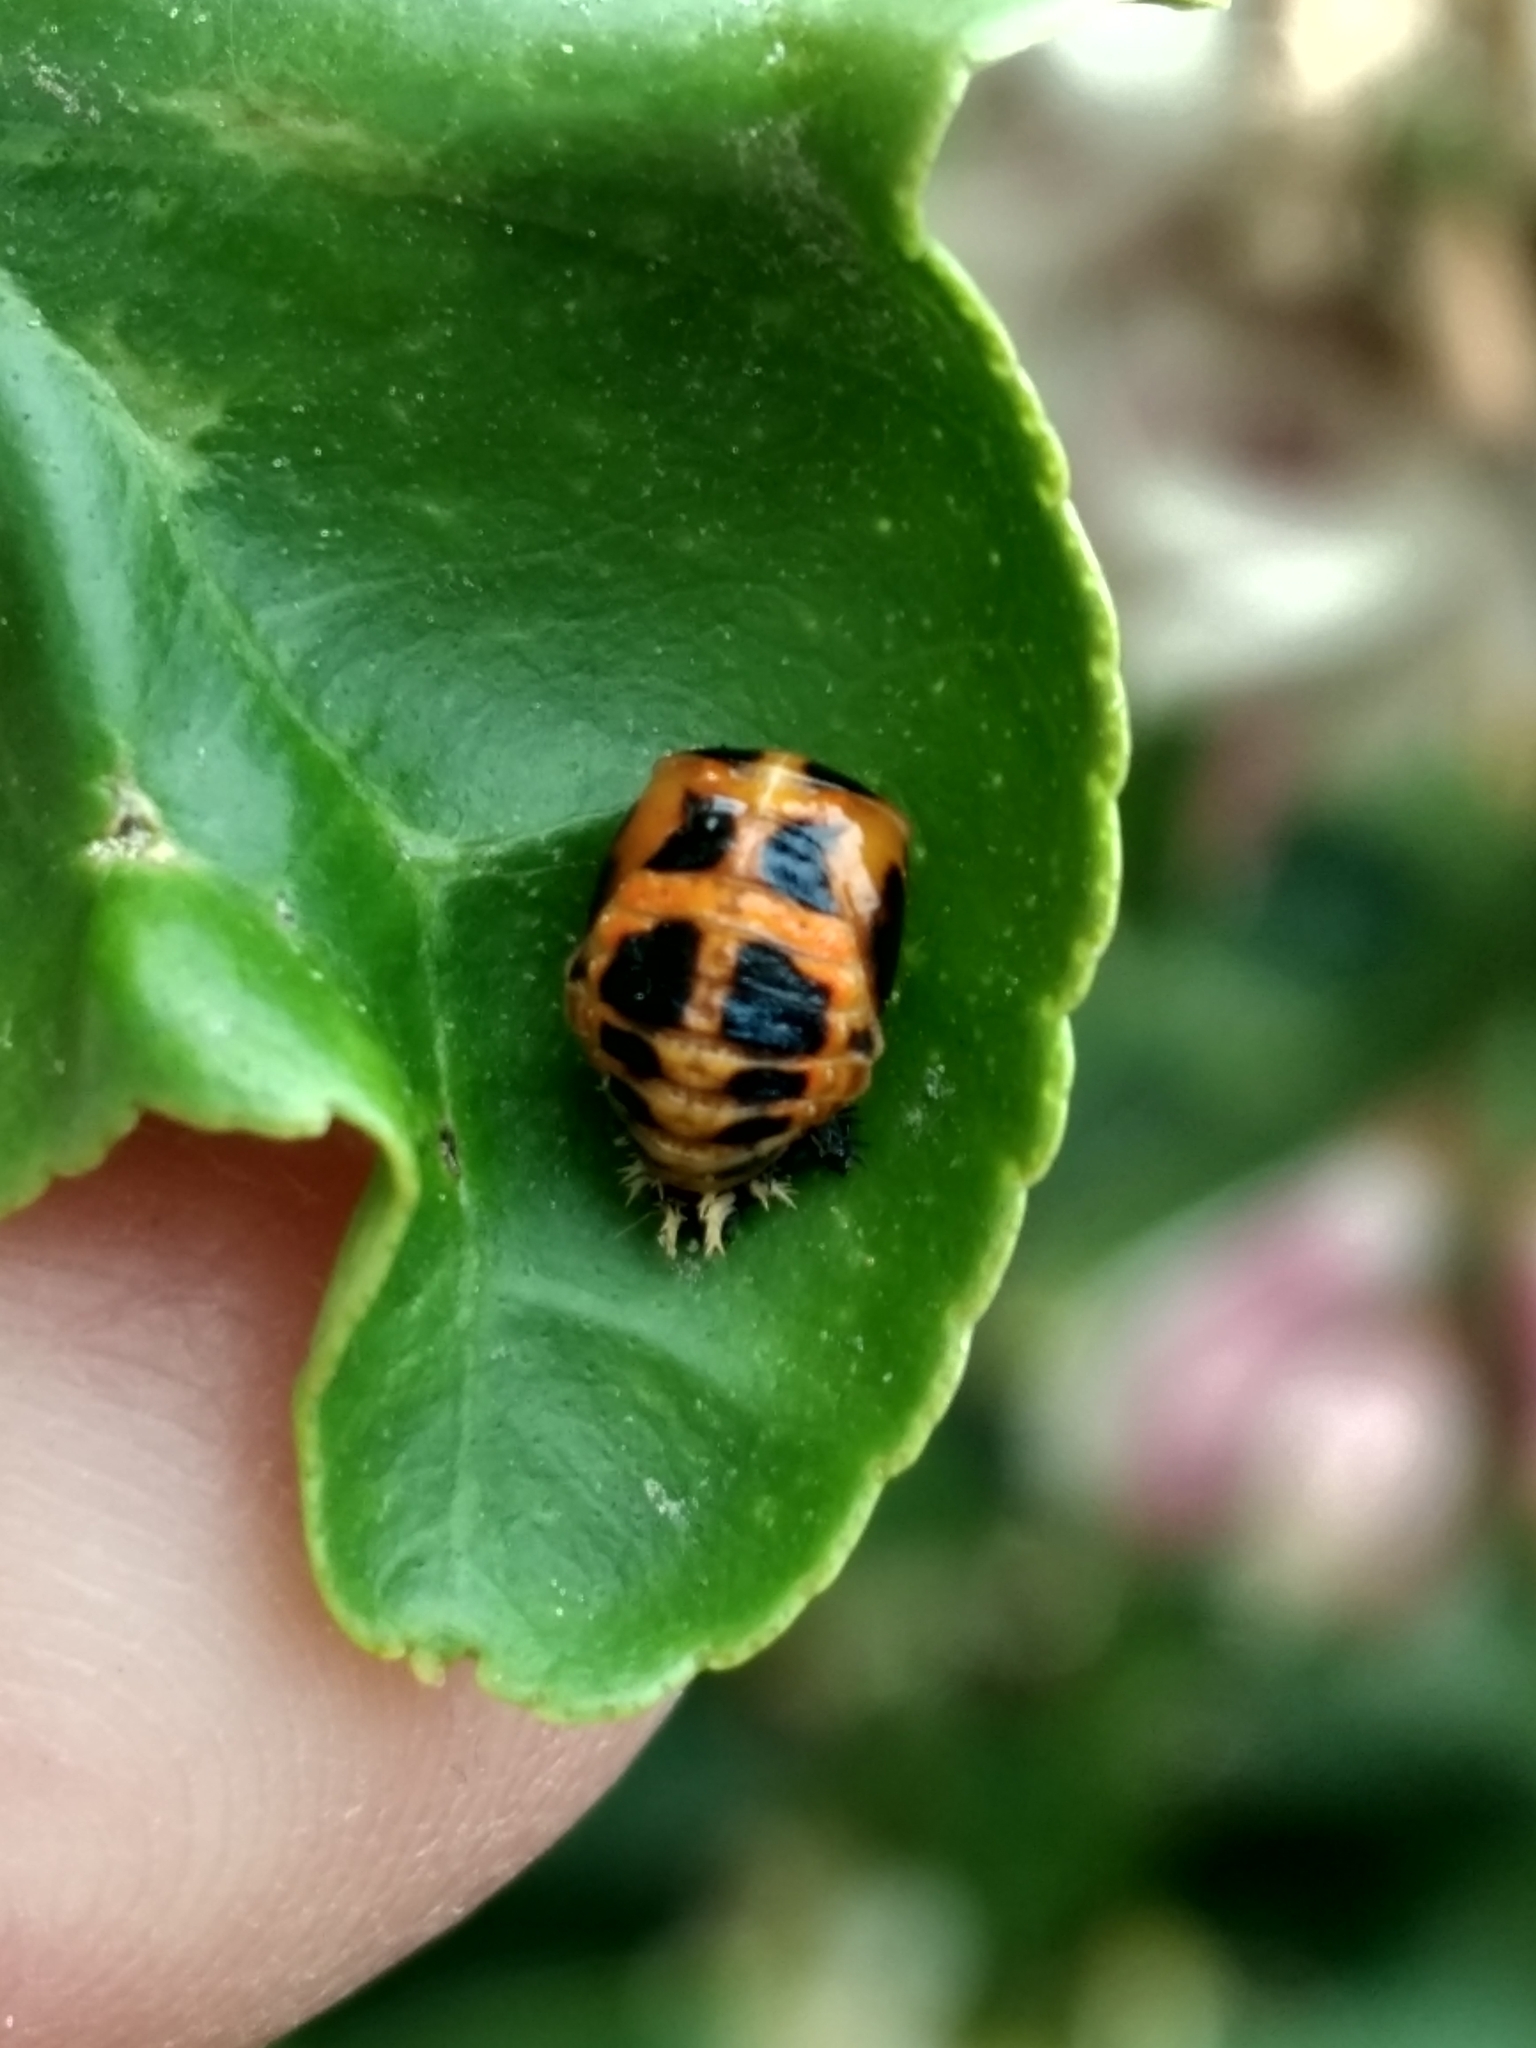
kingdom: Animalia
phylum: Arthropoda
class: Insecta
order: Coleoptera
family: Coccinellidae
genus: Harmonia
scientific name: Harmonia axyridis
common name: Harlequin ladybird
